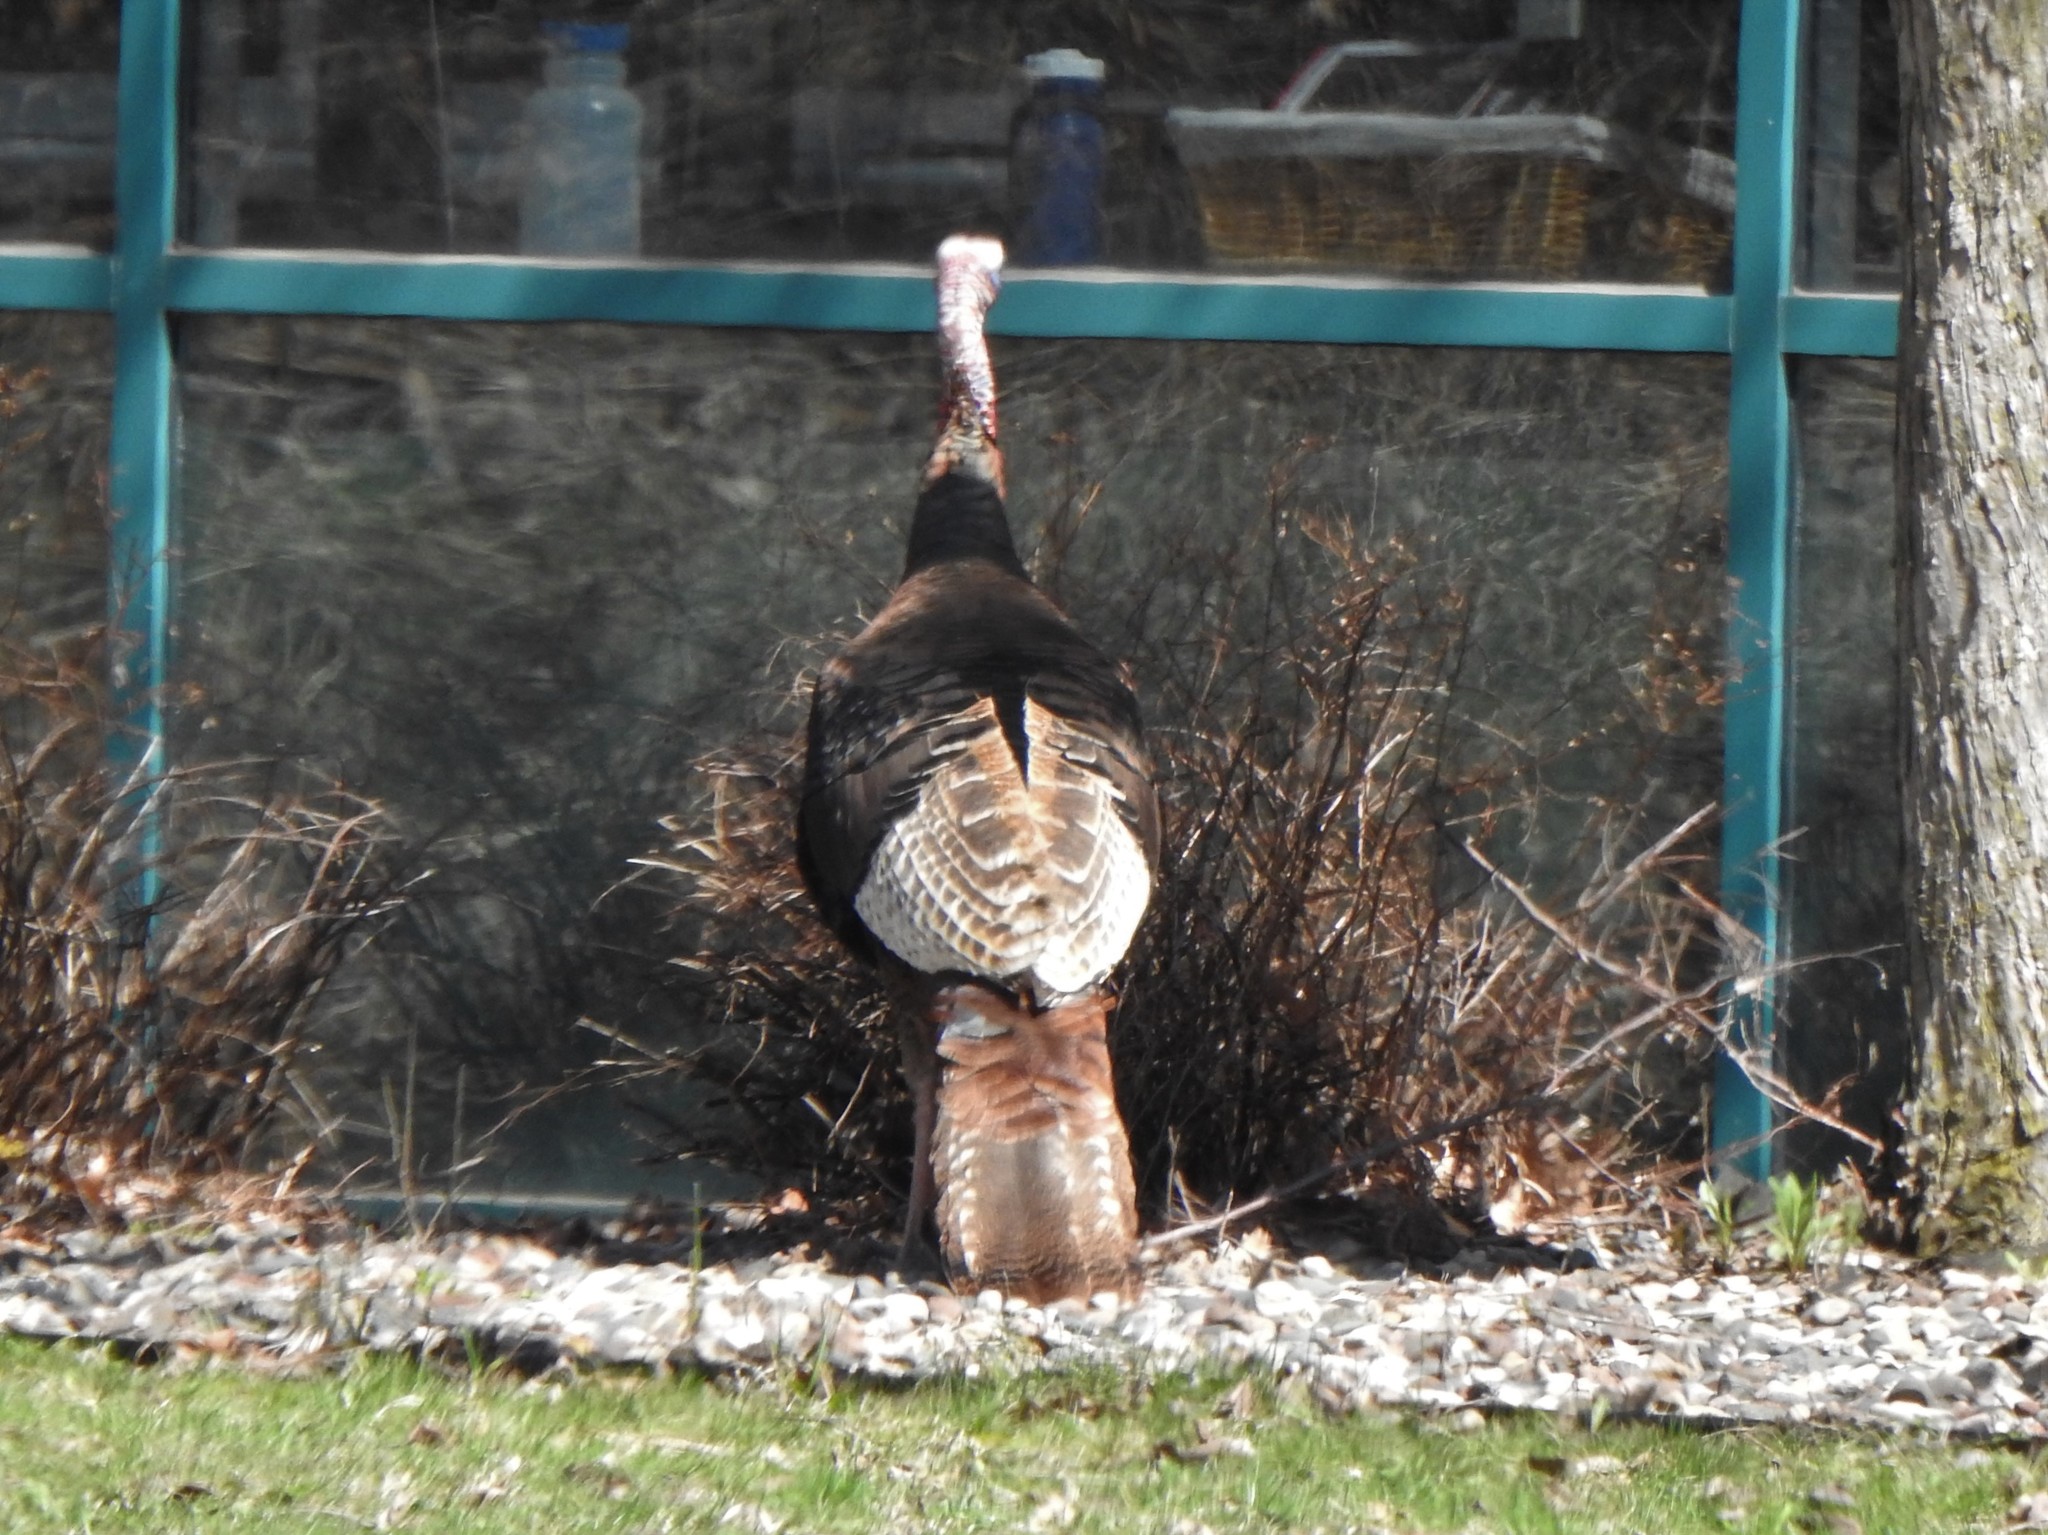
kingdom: Animalia
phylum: Chordata
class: Aves
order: Galliformes
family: Phasianidae
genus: Meleagris
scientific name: Meleagris gallopavo
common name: Wild turkey
